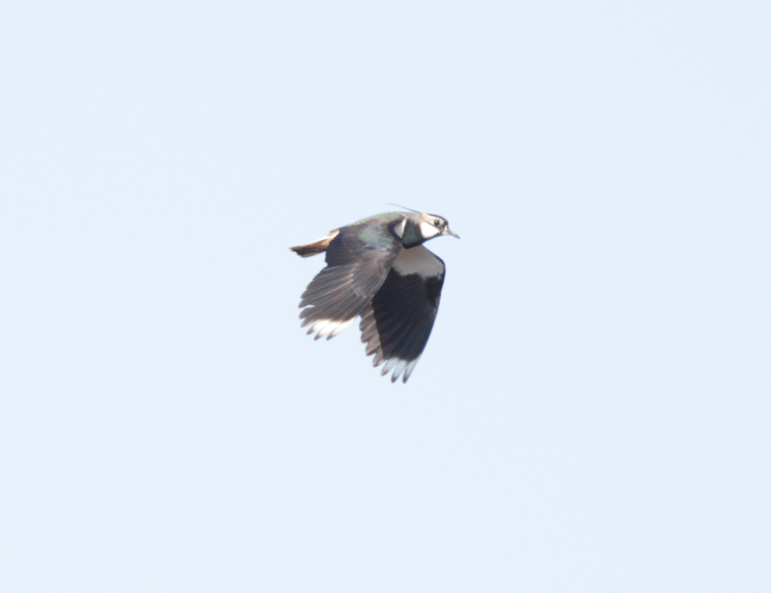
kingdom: Animalia
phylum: Chordata
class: Aves
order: Charadriiformes
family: Charadriidae
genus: Vanellus
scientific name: Vanellus vanellus
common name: Northern lapwing
